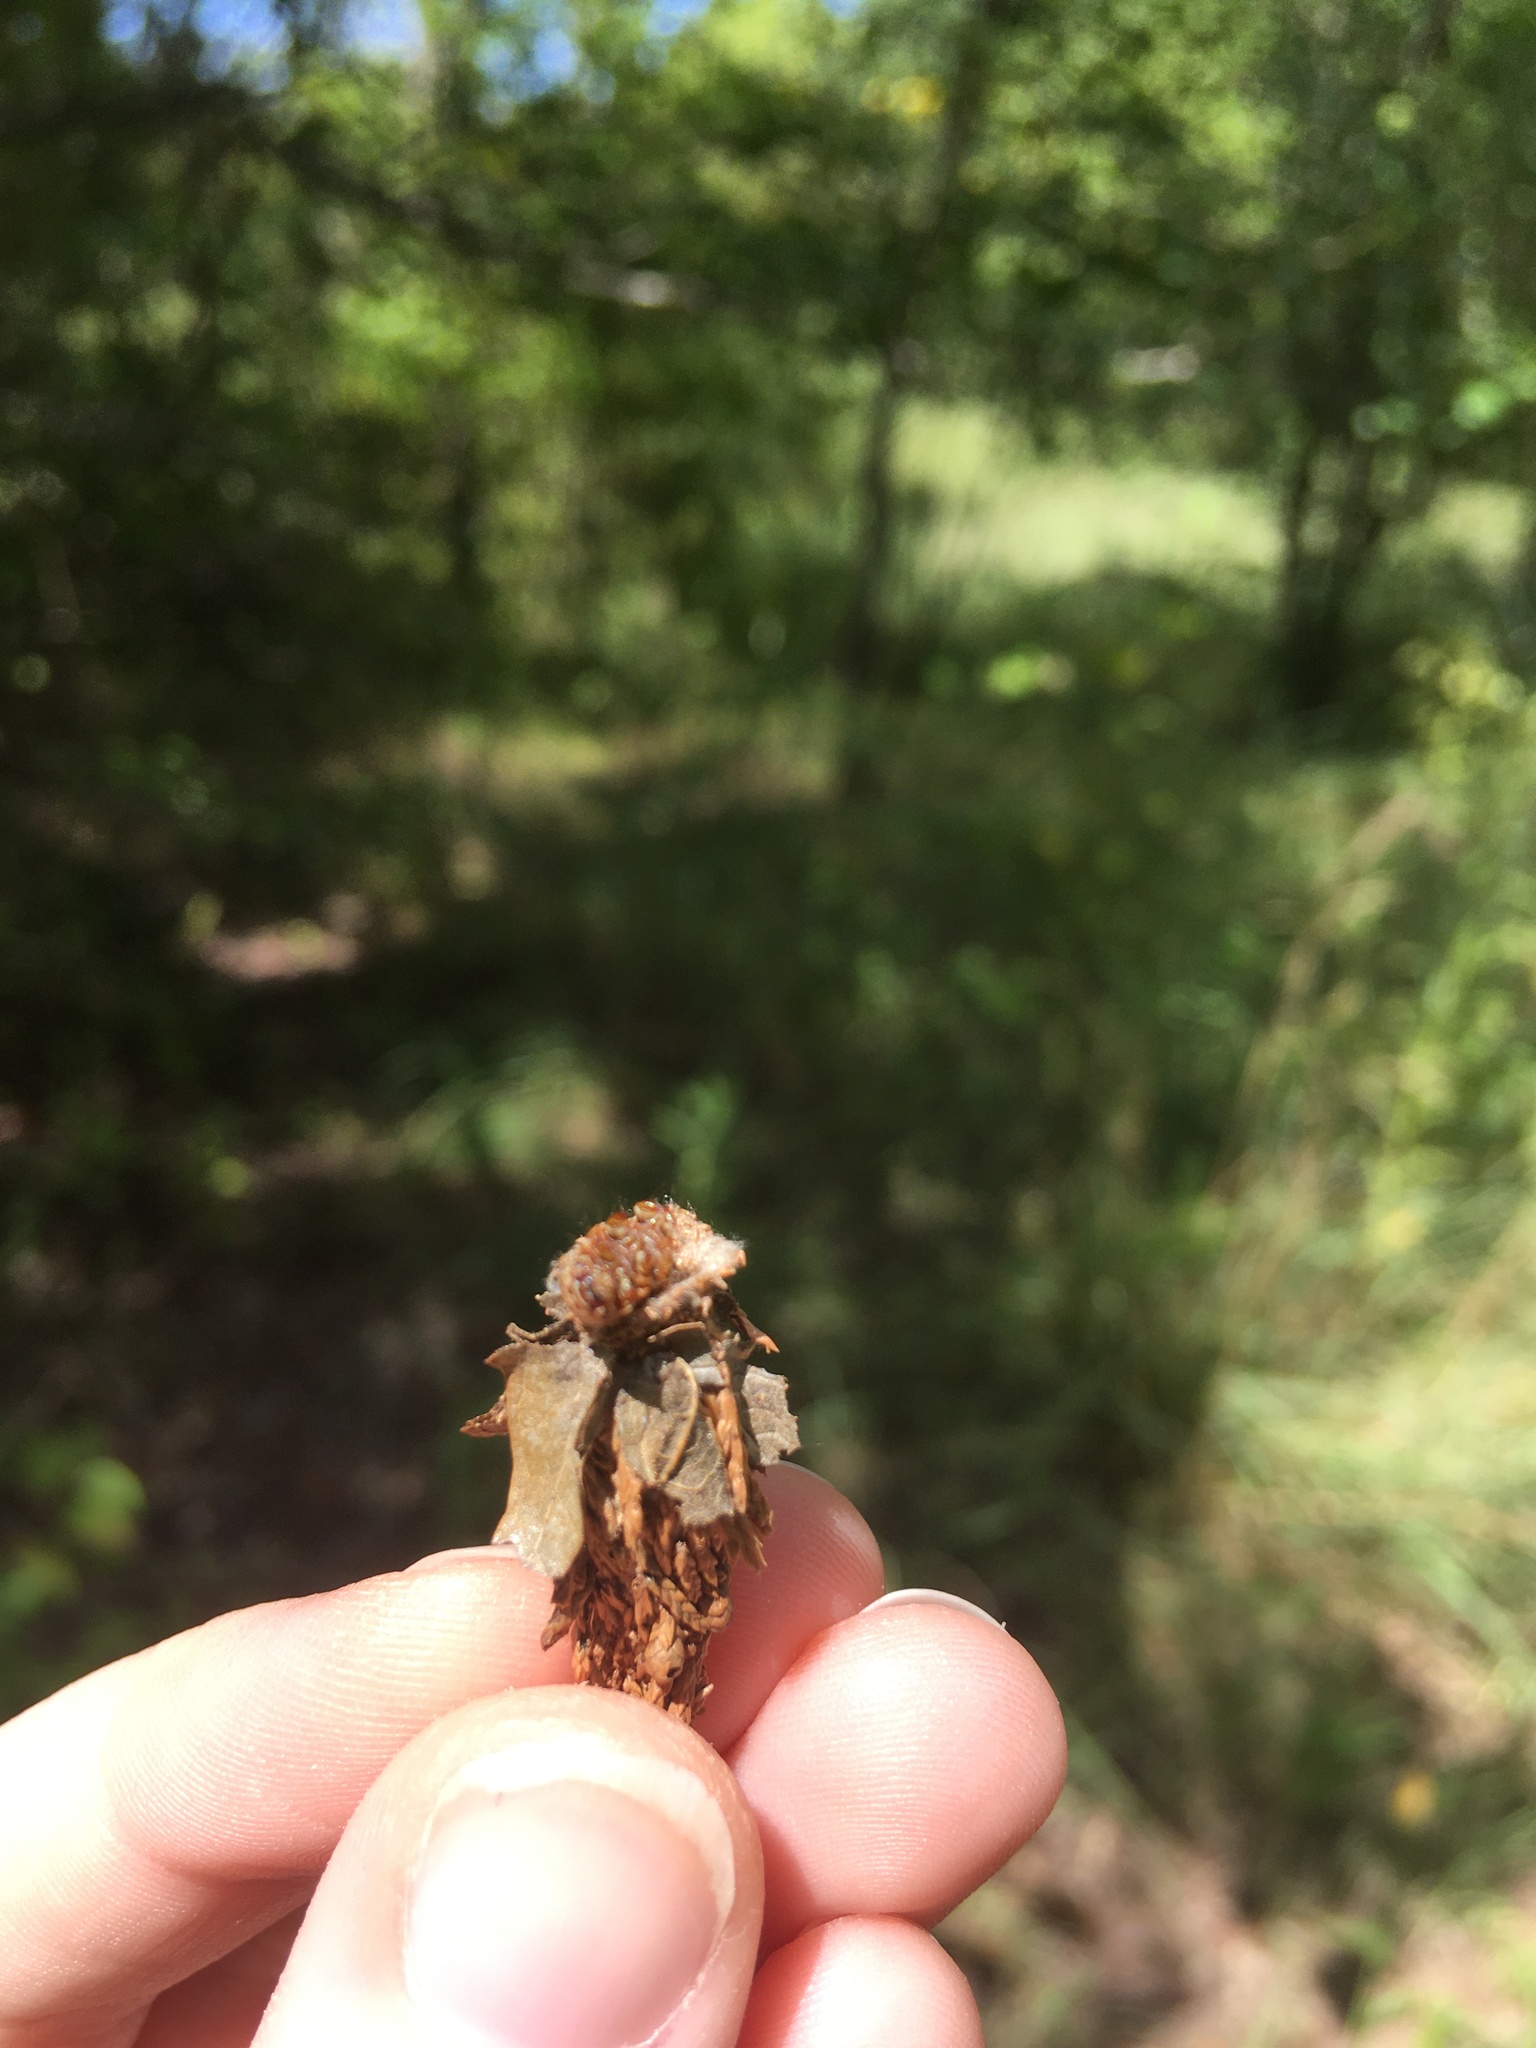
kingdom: Animalia
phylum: Arthropoda
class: Insecta
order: Lepidoptera
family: Psychidae
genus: Thyridopteryx
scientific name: Thyridopteryx ephemeraeformis
